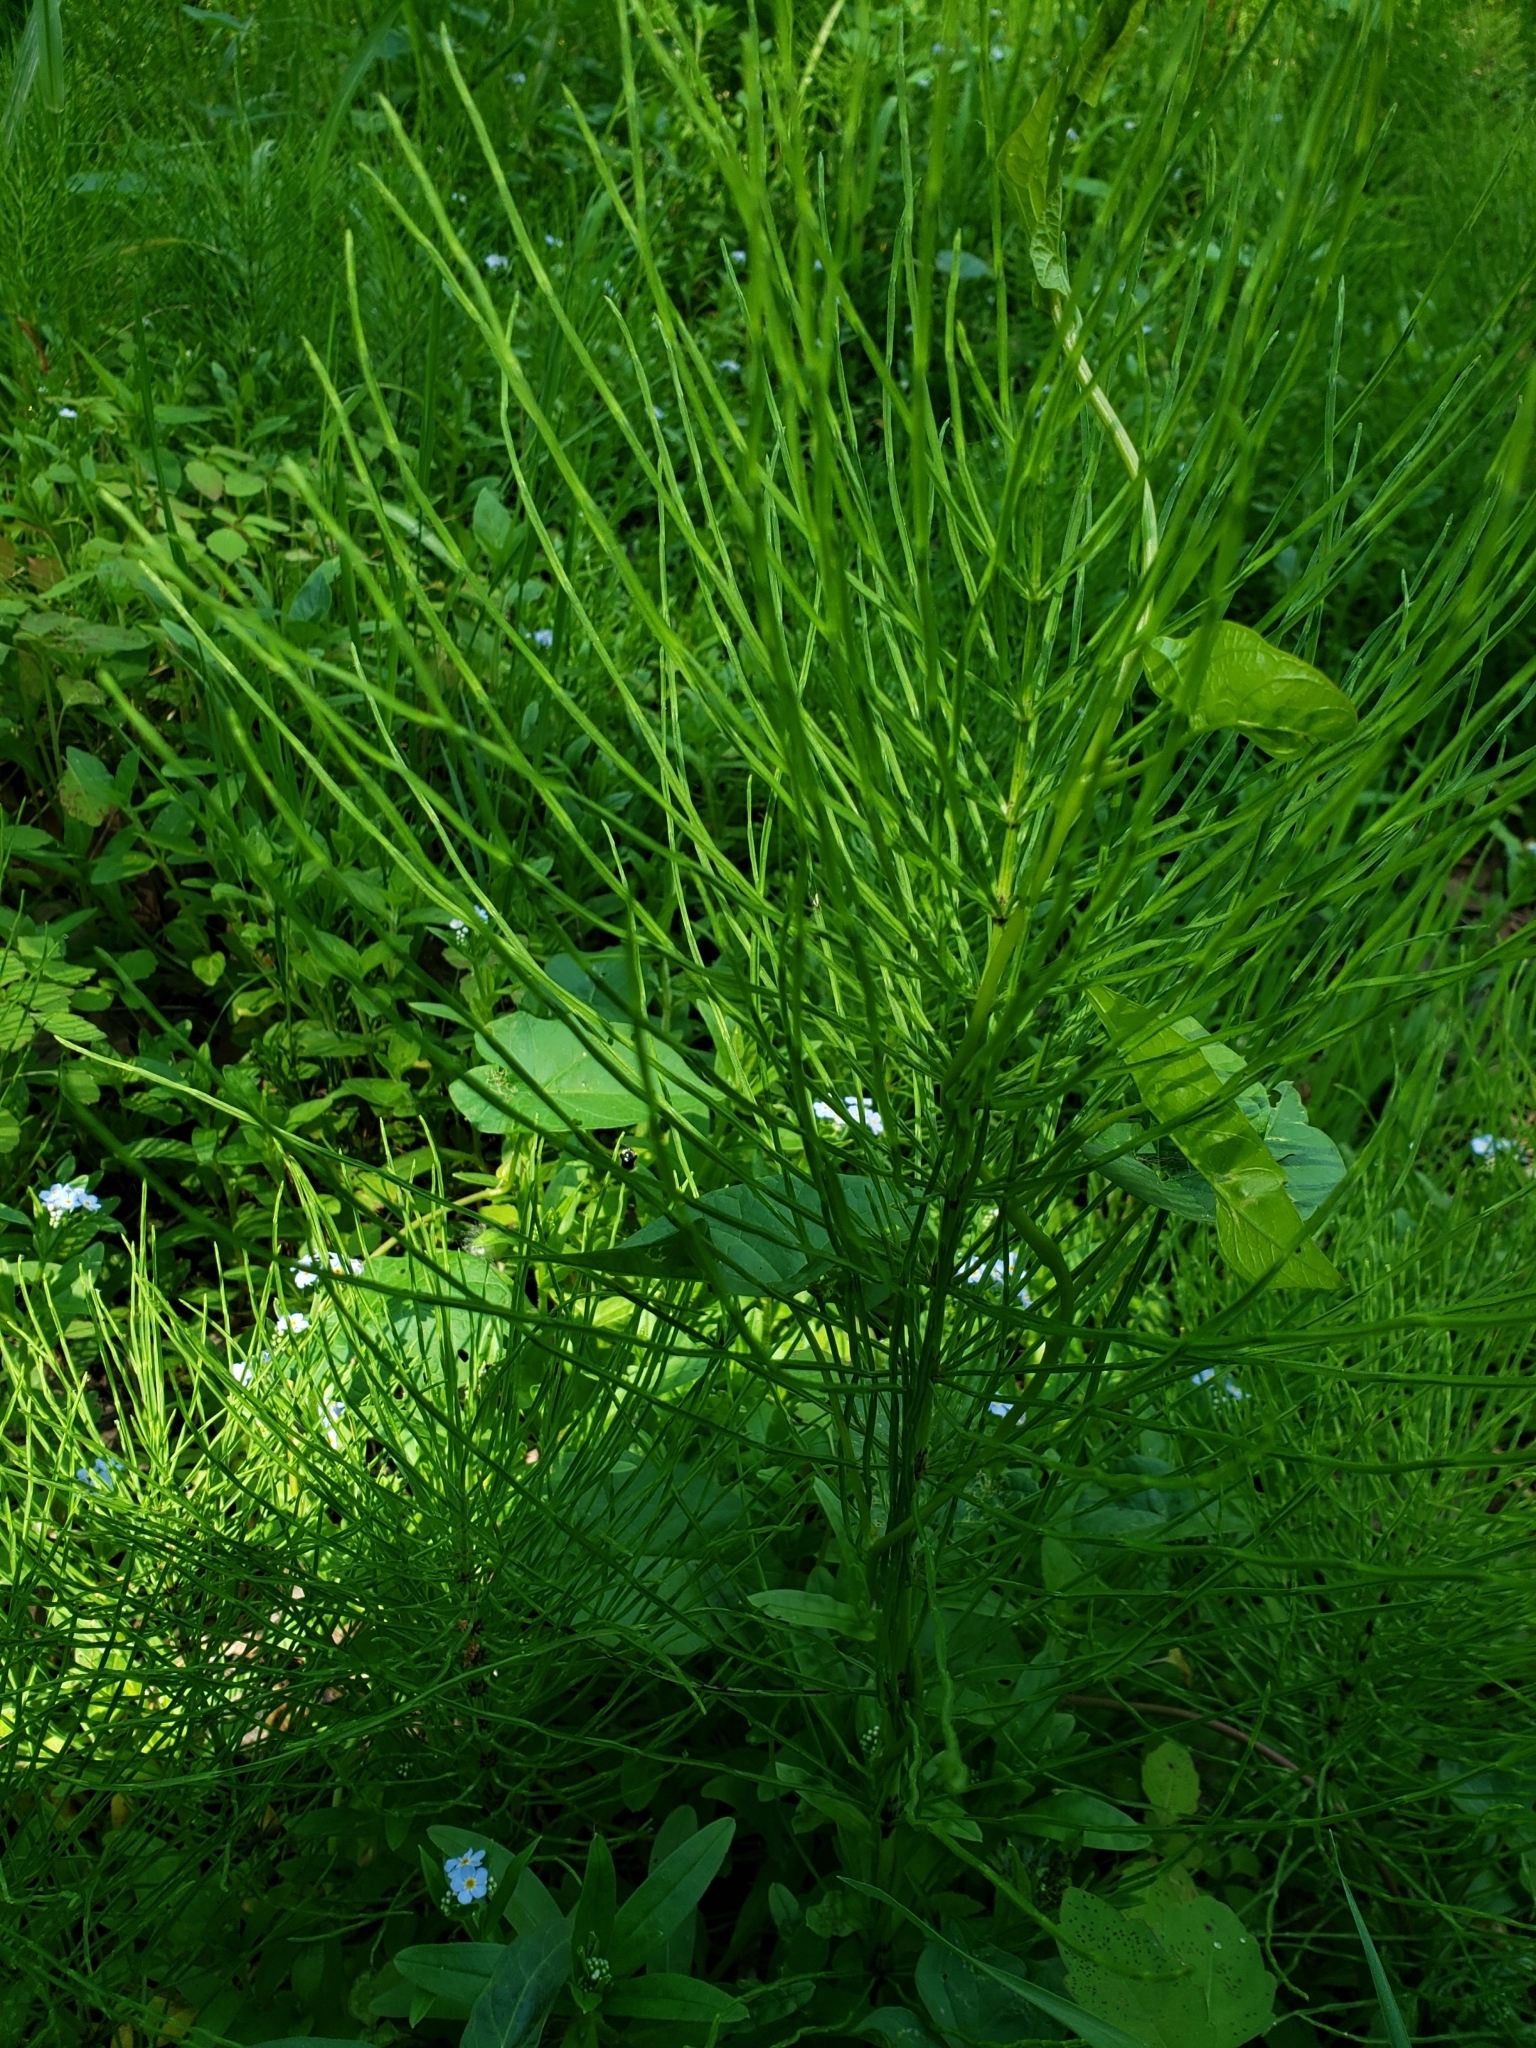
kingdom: Plantae
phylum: Tracheophyta
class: Polypodiopsida
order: Equisetales
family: Equisetaceae
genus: Equisetum
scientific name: Equisetum arvense
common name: Field horsetail
